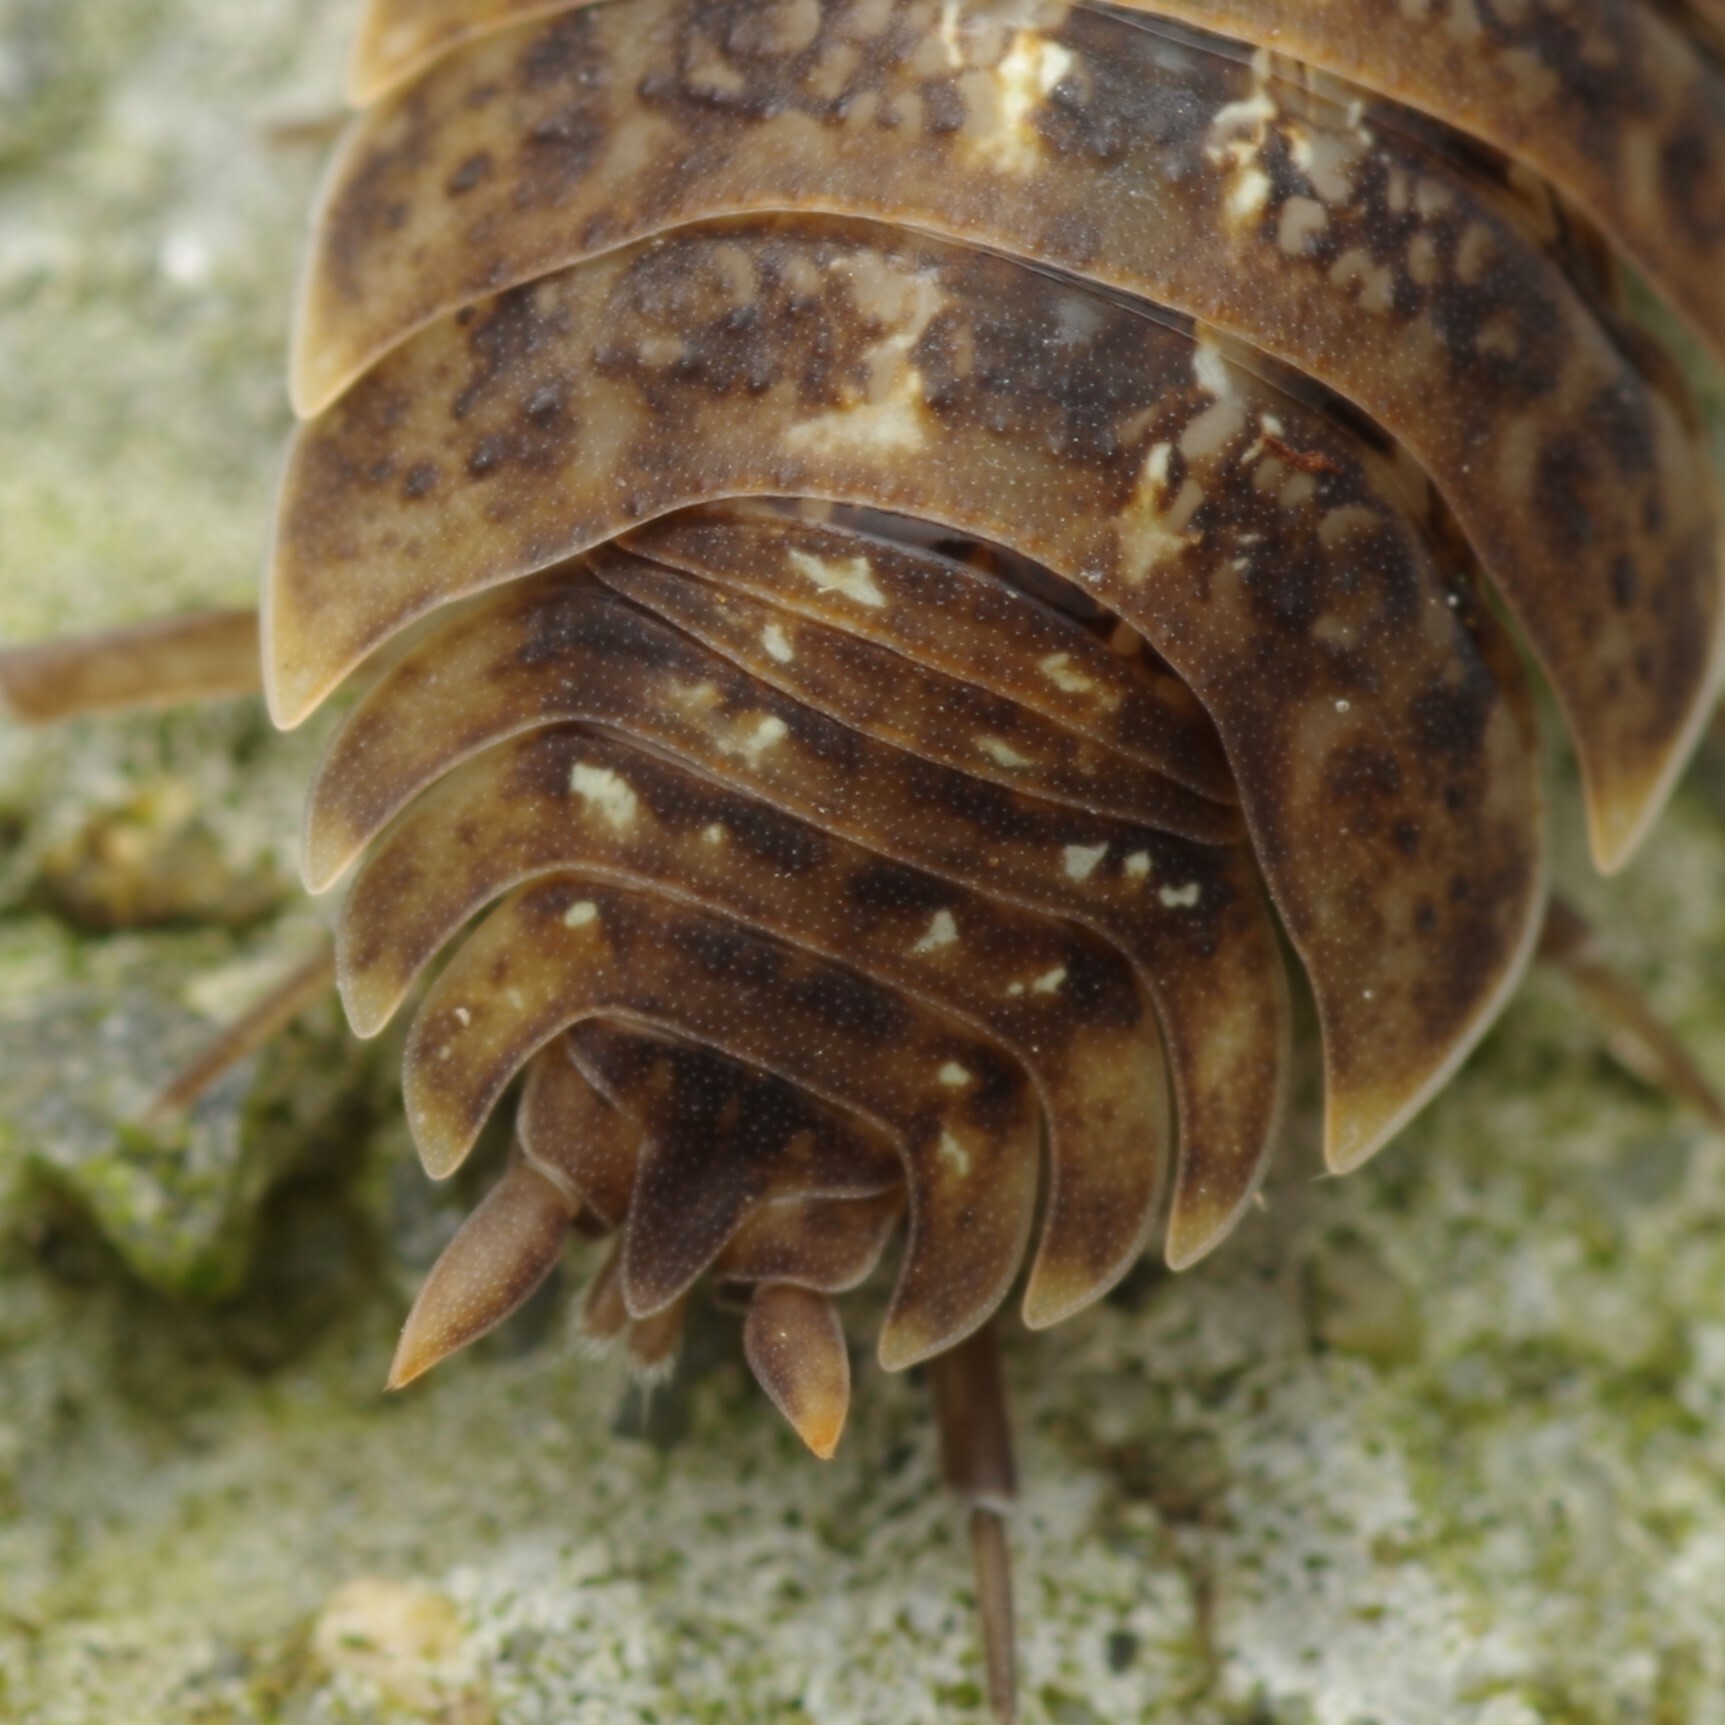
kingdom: Animalia
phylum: Arthropoda
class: Malacostraca
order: Isopoda
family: Porcellionidae
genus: Porcellio
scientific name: Porcellio monticola
